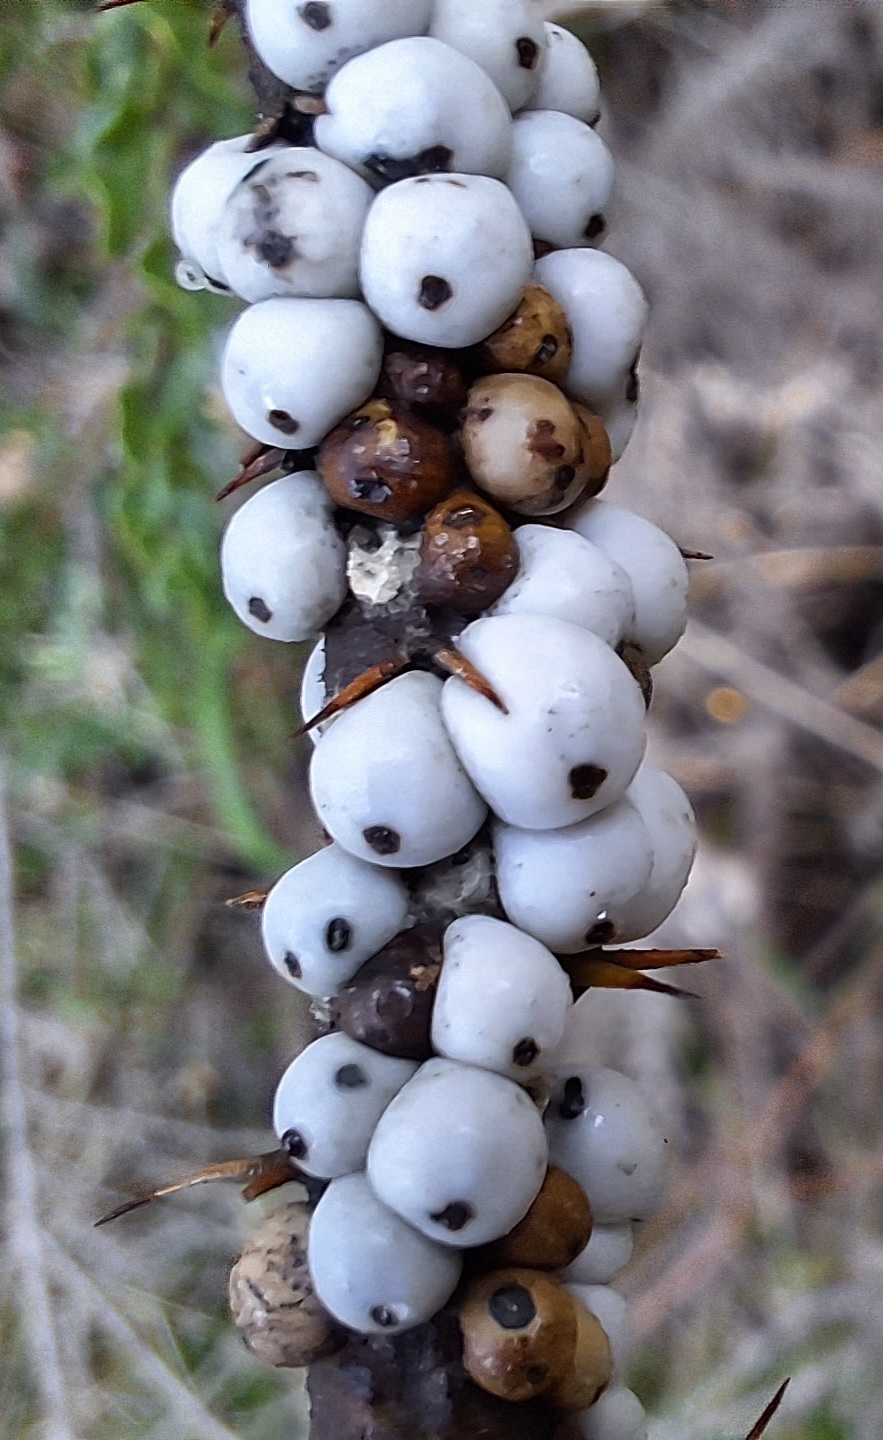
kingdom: Animalia
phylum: Arthropoda
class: Insecta
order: Hemiptera
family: Coccidae
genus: Cryptes
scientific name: Cryptes baccatus
